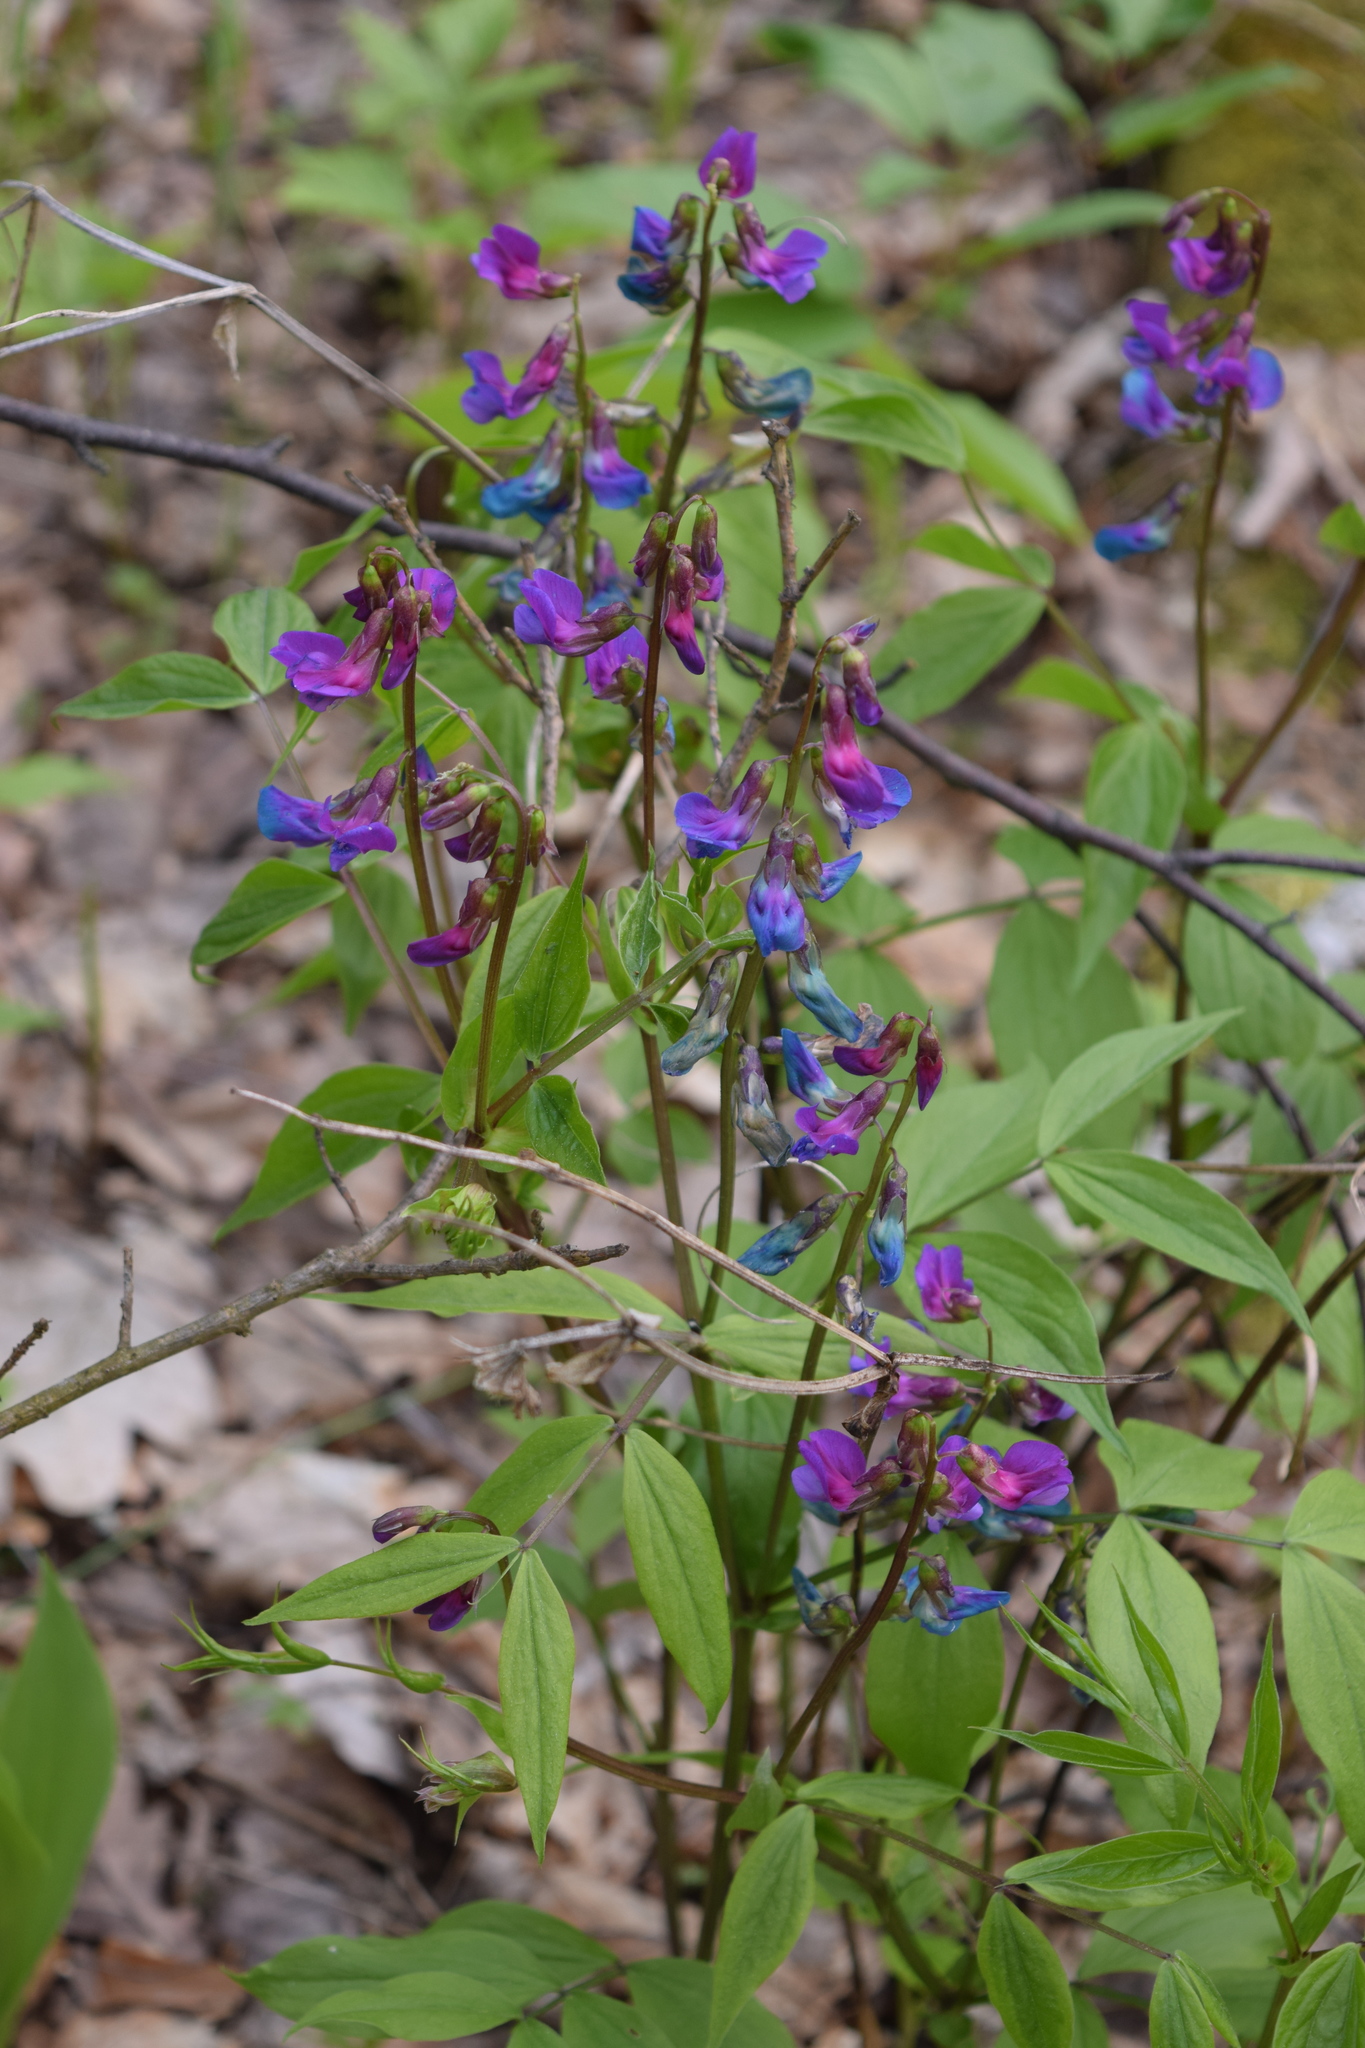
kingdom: Plantae
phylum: Tracheophyta
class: Magnoliopsida
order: Fabales
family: Fabaceae
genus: Lathyrus
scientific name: Lathyrus vernus
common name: Spring pea
